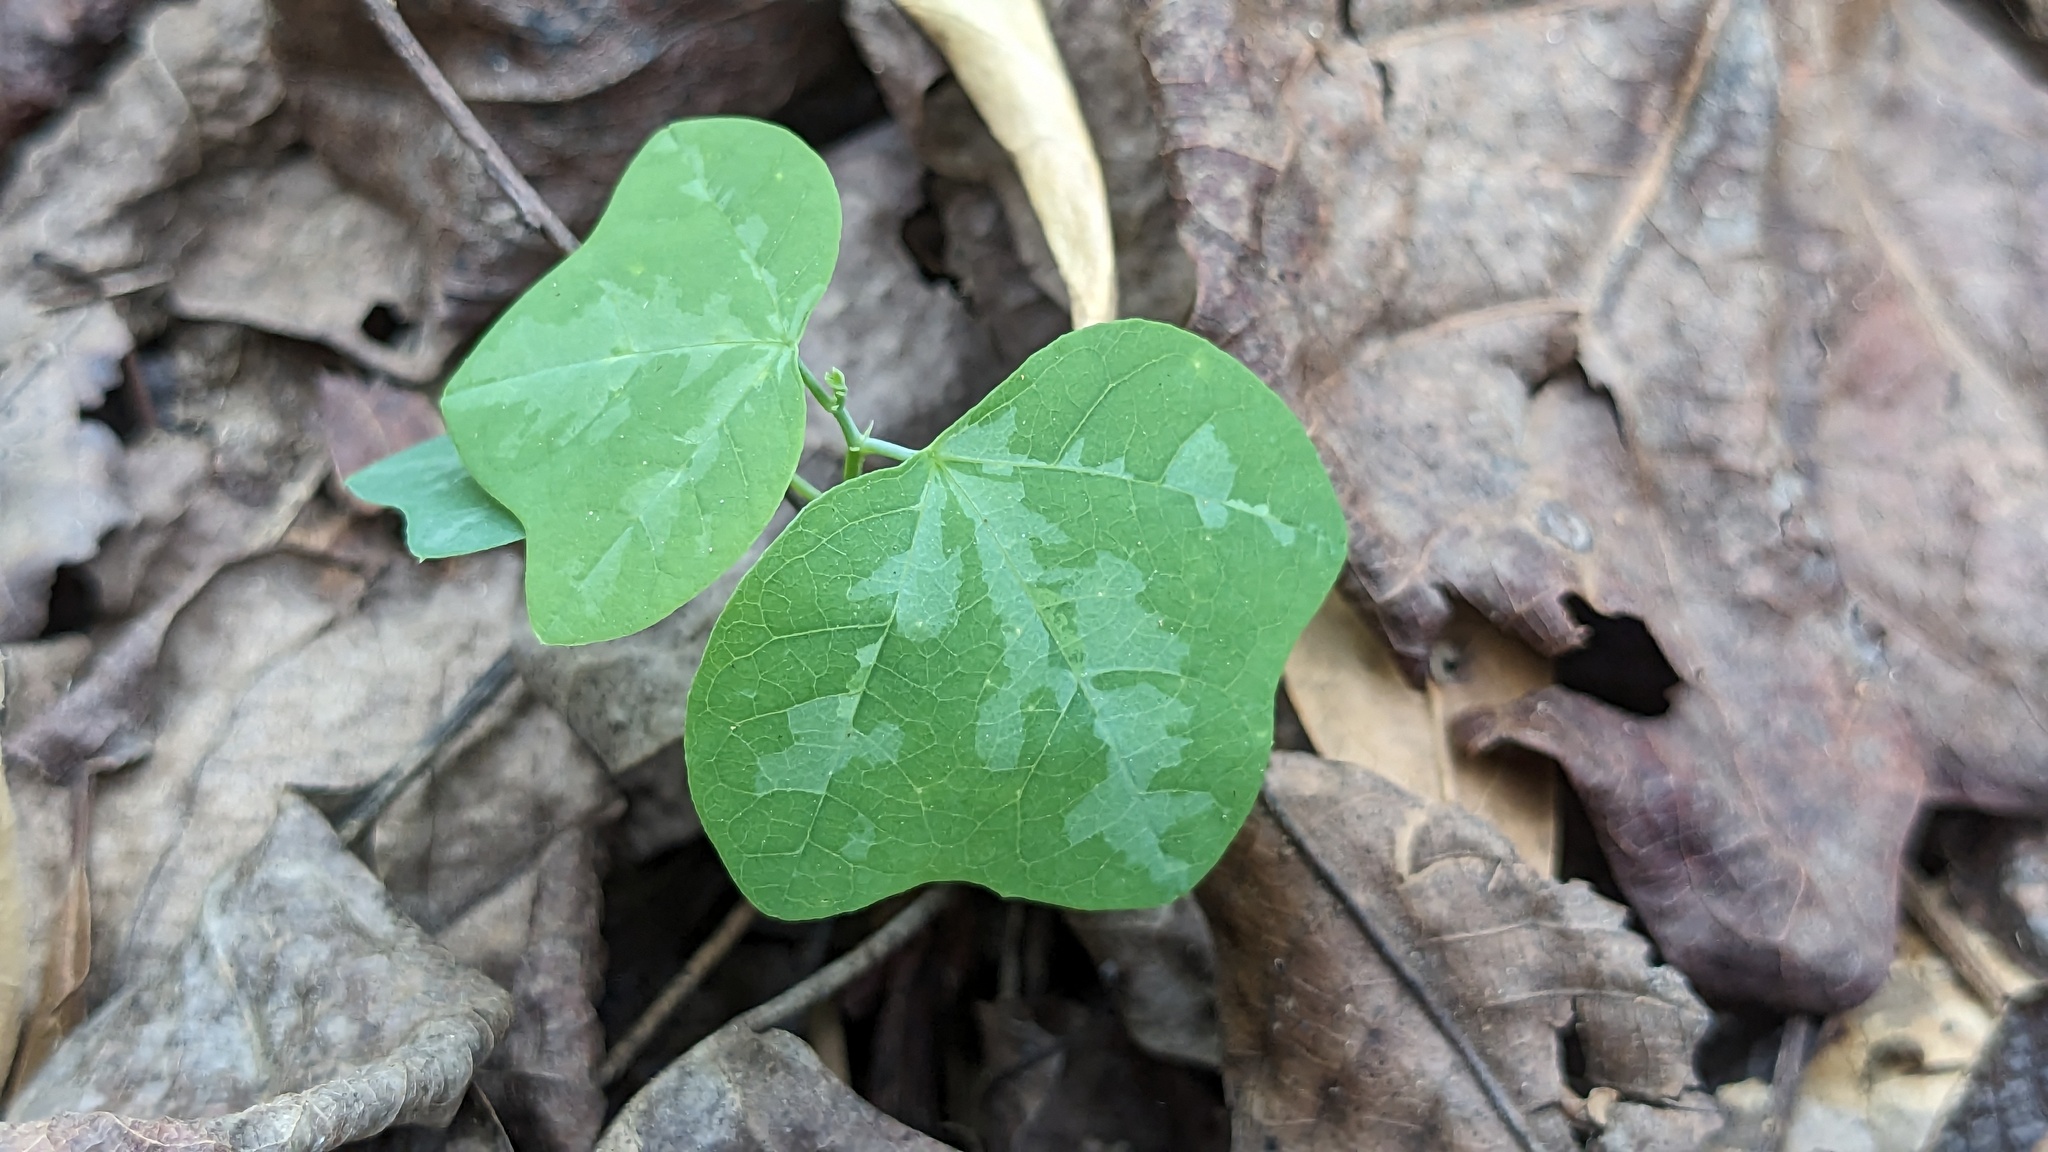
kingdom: Plantae
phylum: Tracheophyta
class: Magnoliopsida
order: Malpighiales
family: Passifloraceae
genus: Passiflora
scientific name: Passiflora lutea
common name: Yellow passionflower
